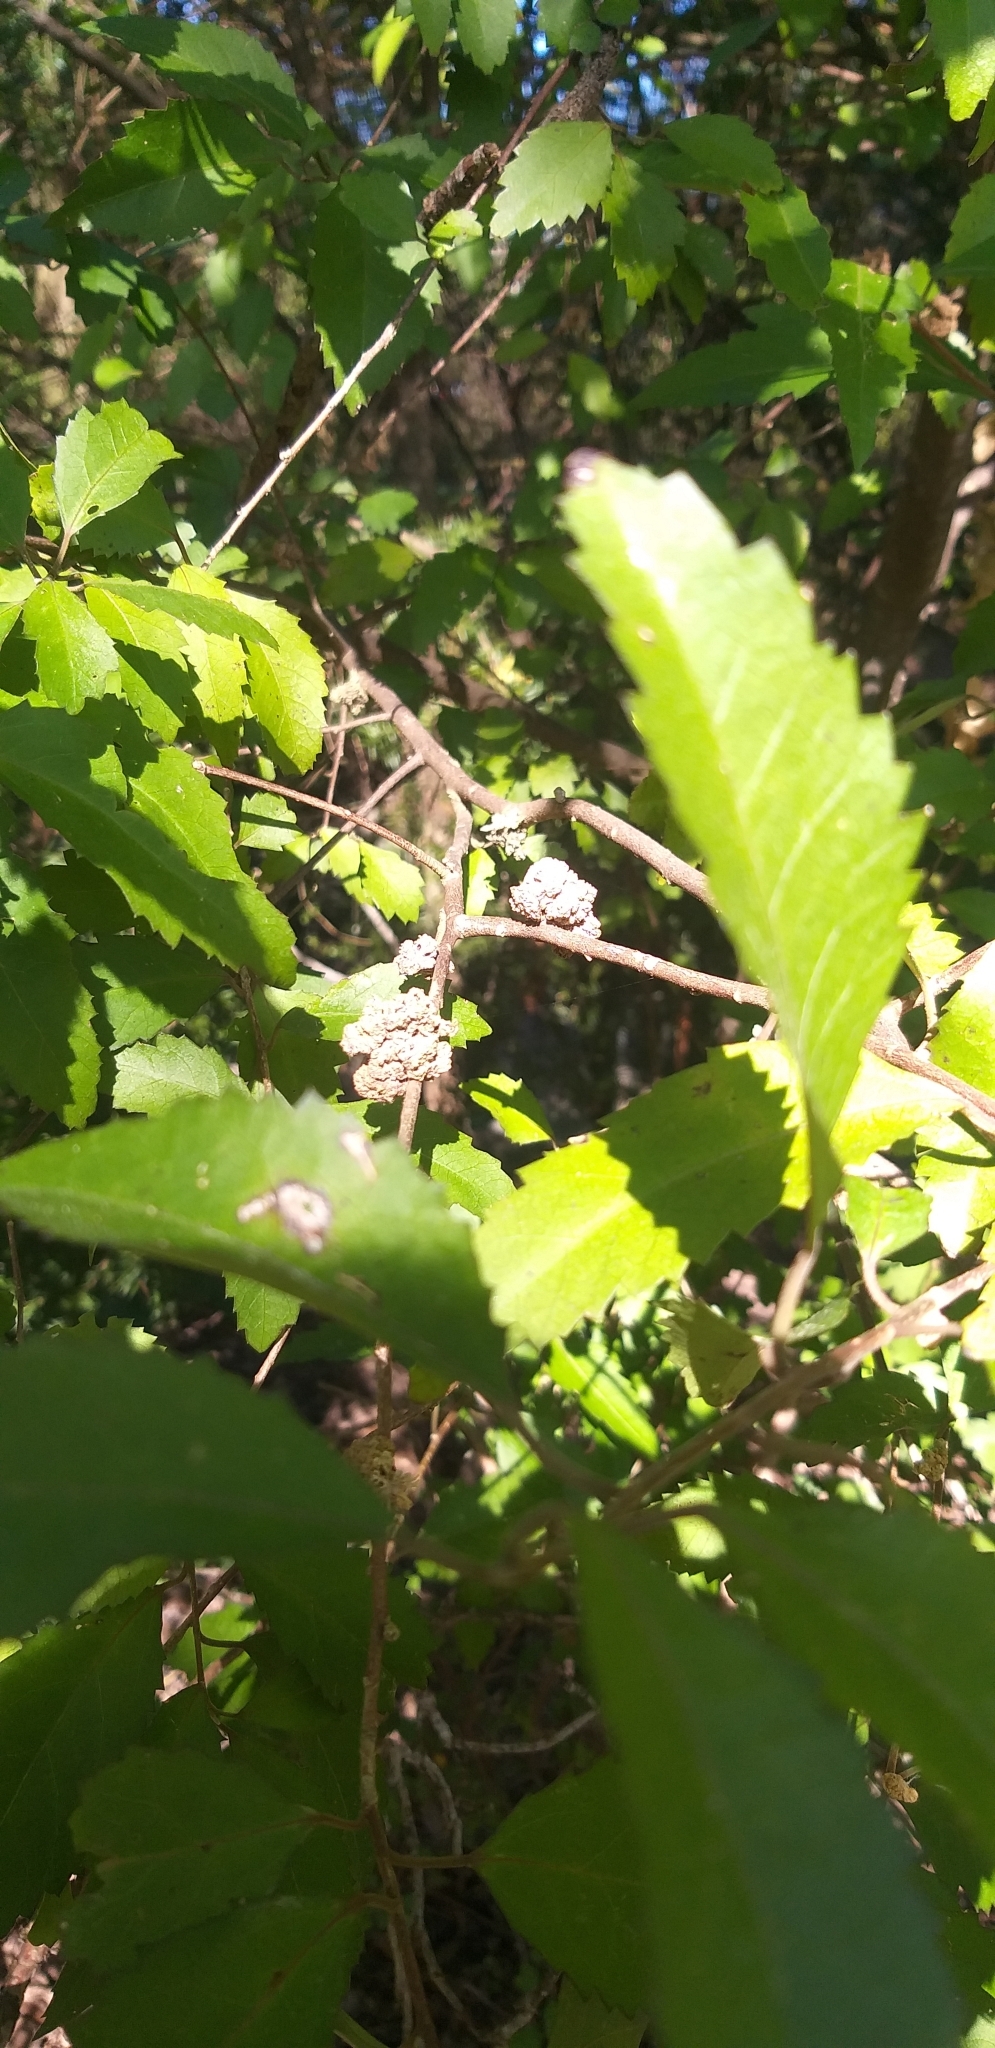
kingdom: Animalia
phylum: Arthropoda
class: Arachnida
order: Trombidiformes
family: Eriophyidae
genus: Eriophyes
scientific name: Eriophyes hoheriae
